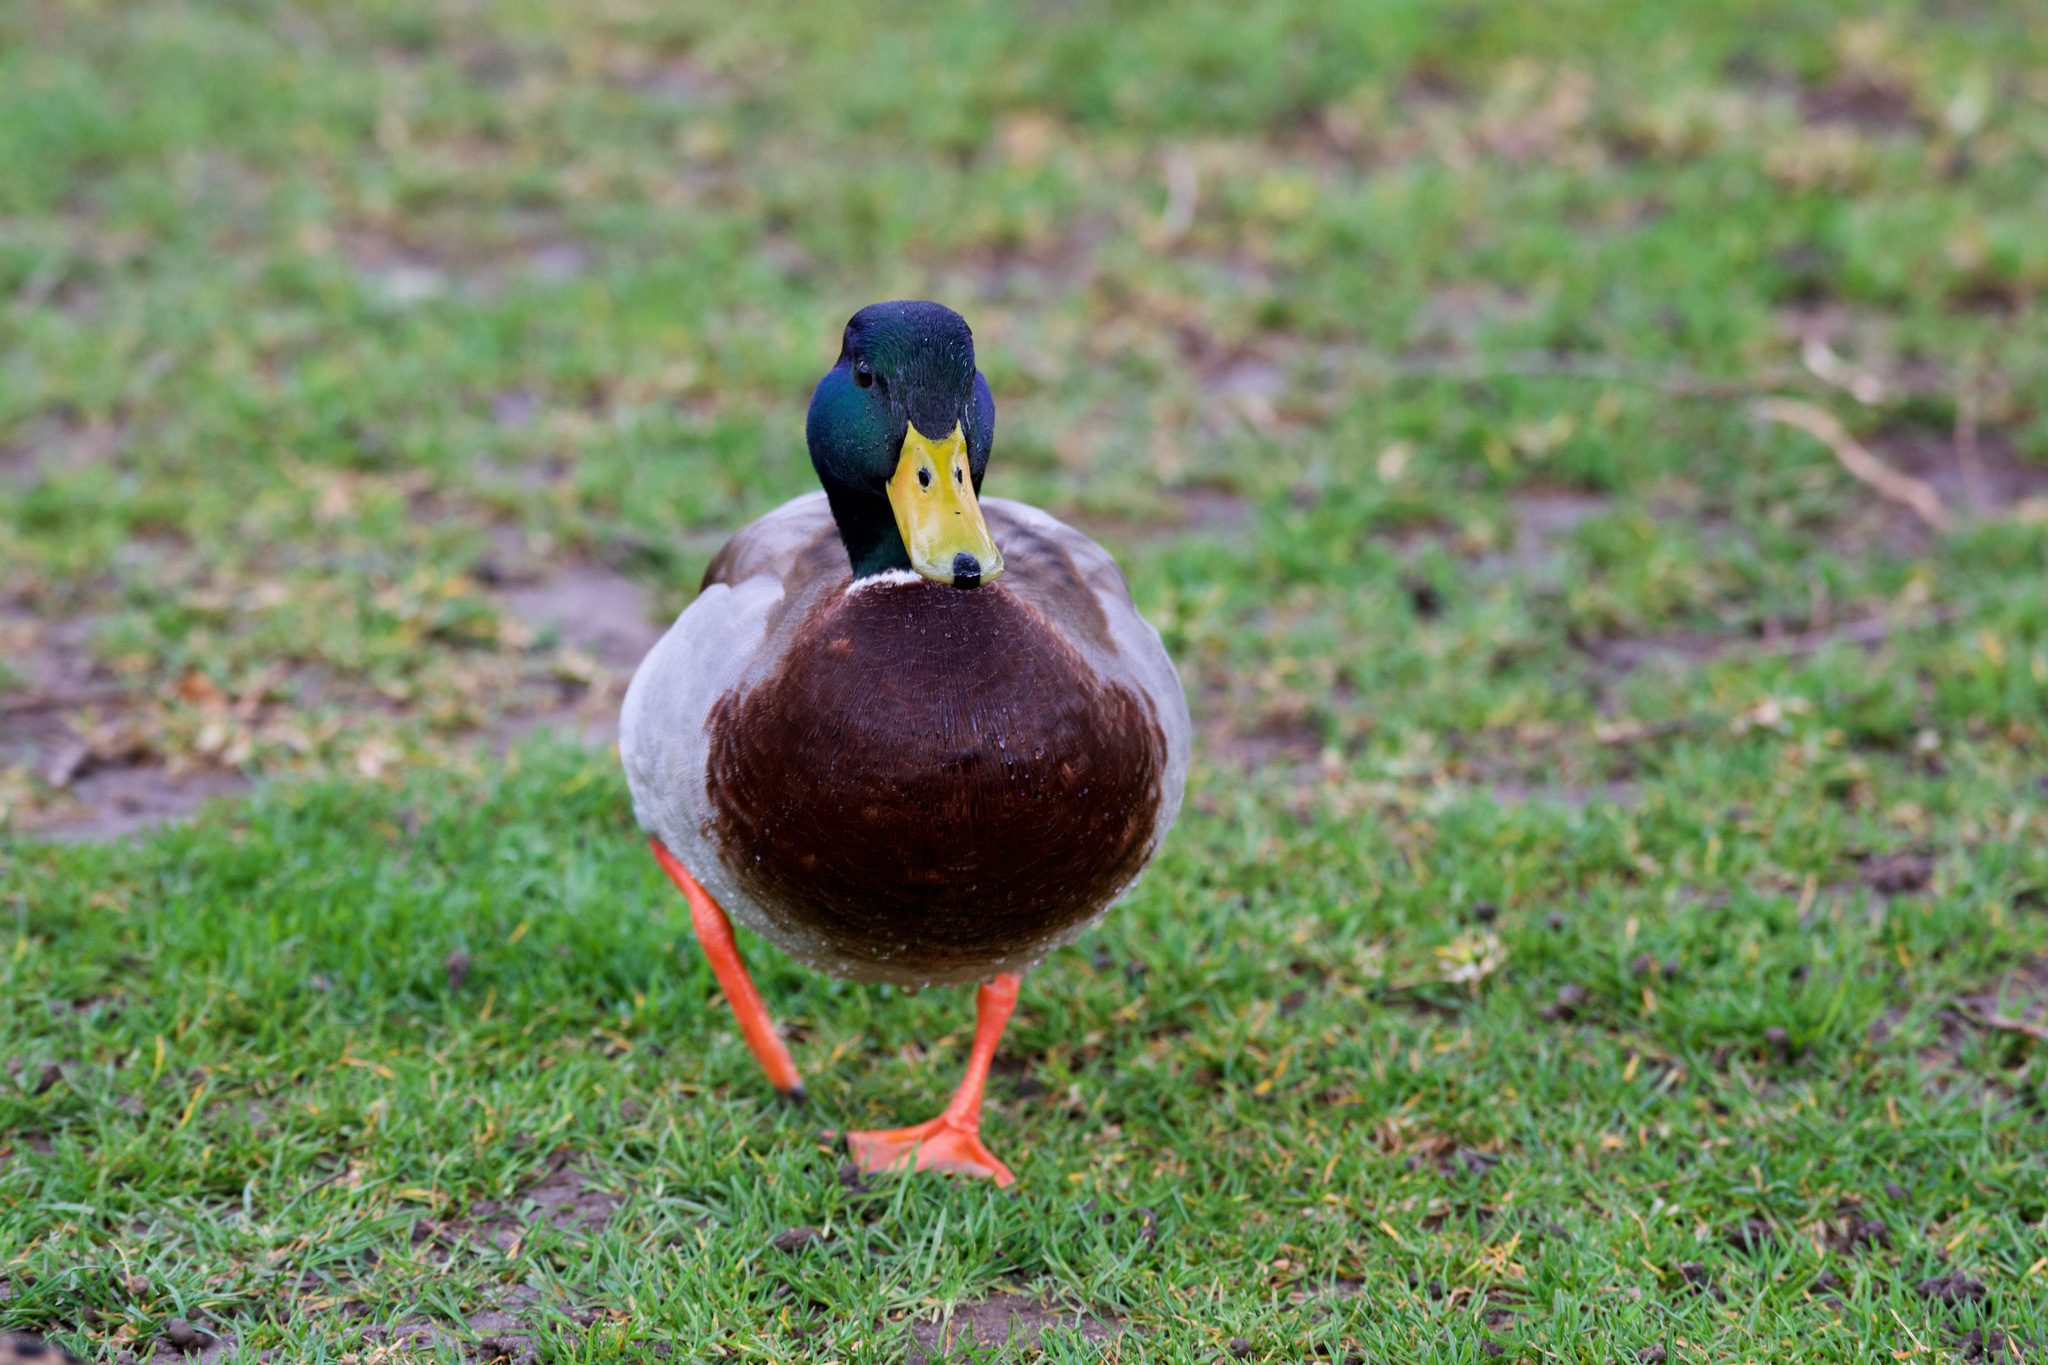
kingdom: Animalia
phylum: Chordata
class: Aves
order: Anseriformes
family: Anatidae
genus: Anas
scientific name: Anas platyrhynchos
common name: Mallard
